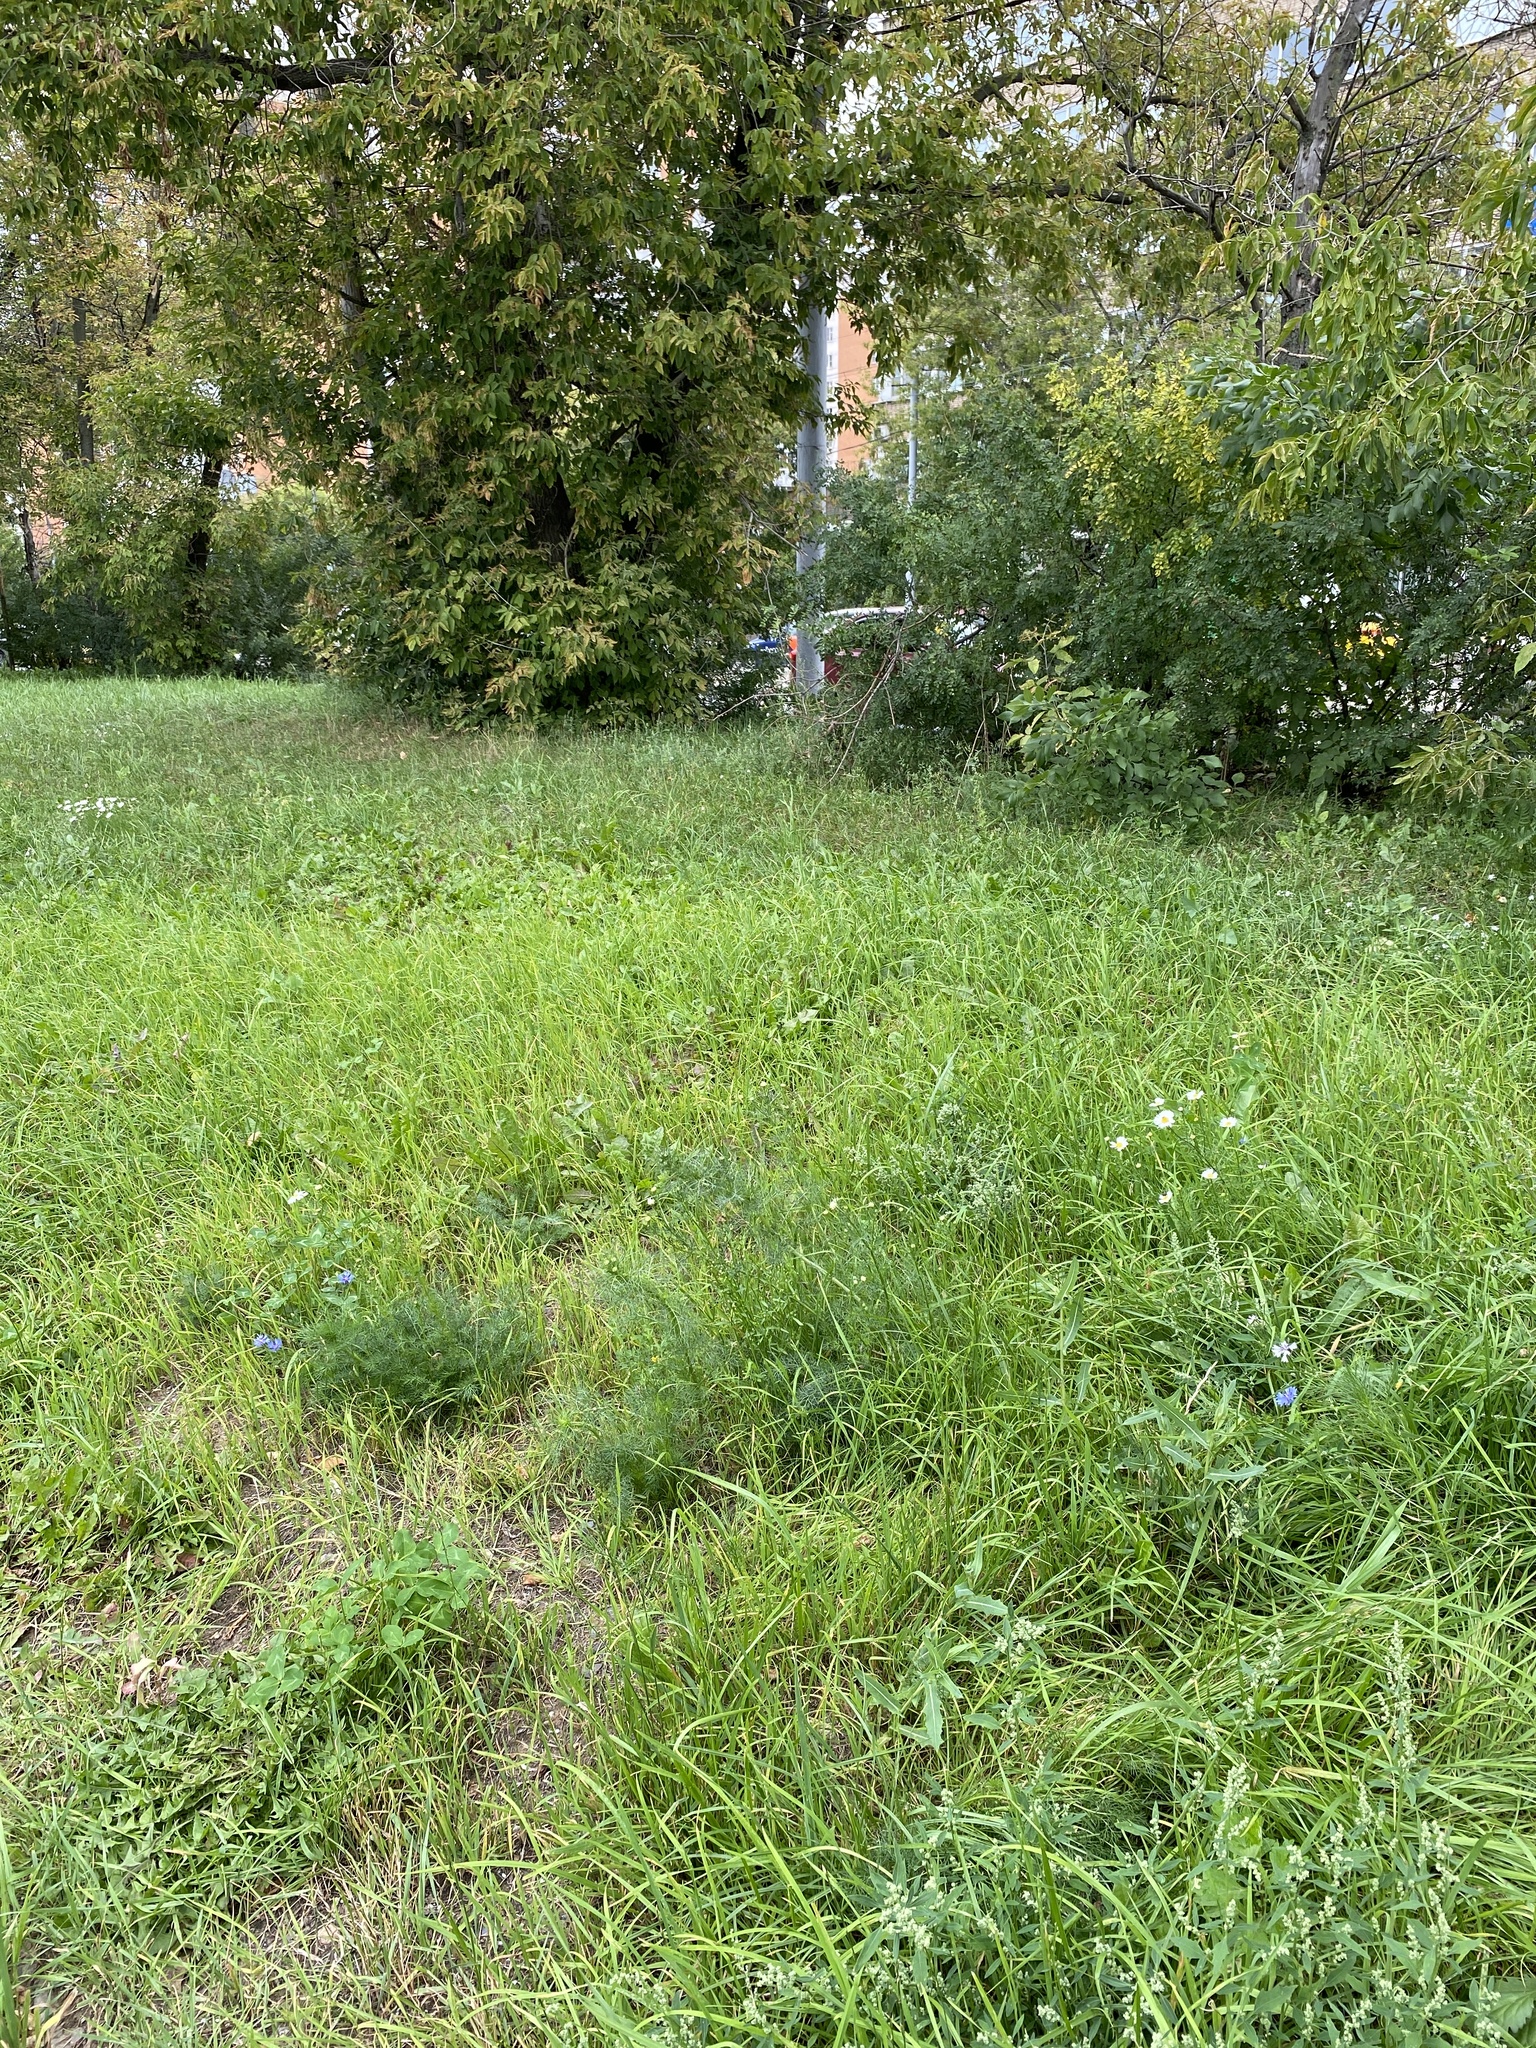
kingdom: Plantae
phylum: Tracheophyta
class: Magnoliopsida
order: Asterales
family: Asteraceae
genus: Centaurea
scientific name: Centaurea cyanus
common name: Cornflower
